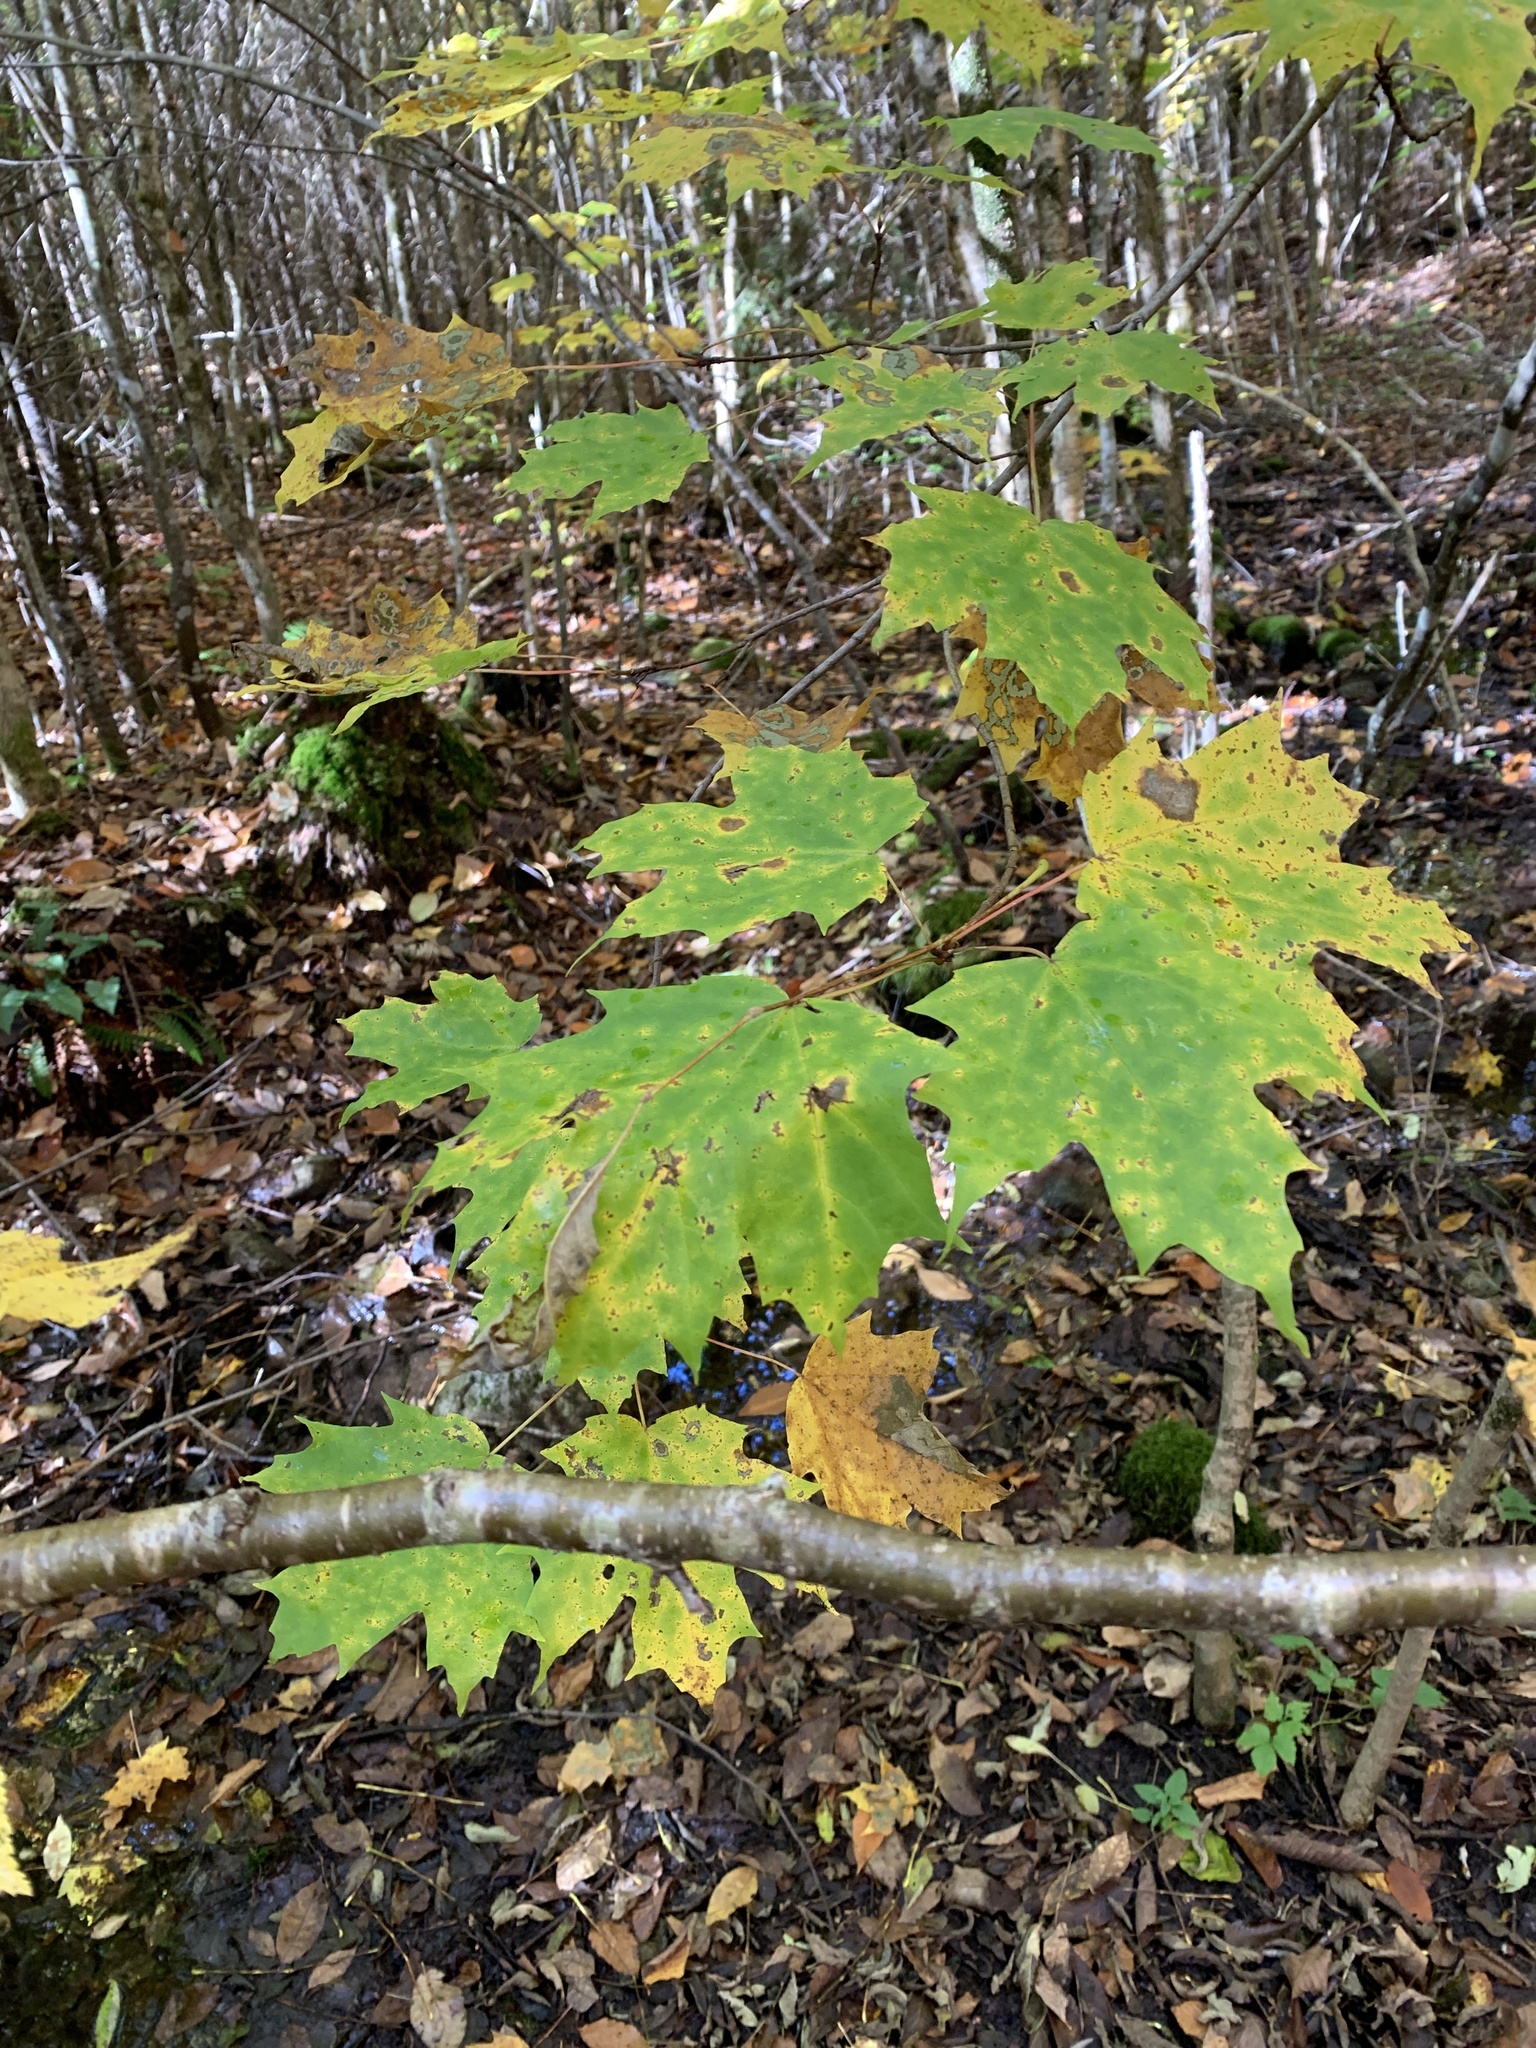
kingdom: Plantae
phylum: Tracheophyta
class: Magnoliopsida
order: Sapindales
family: Sapindaceae
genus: Acer
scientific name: Acer saccharum
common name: Sugar maple
